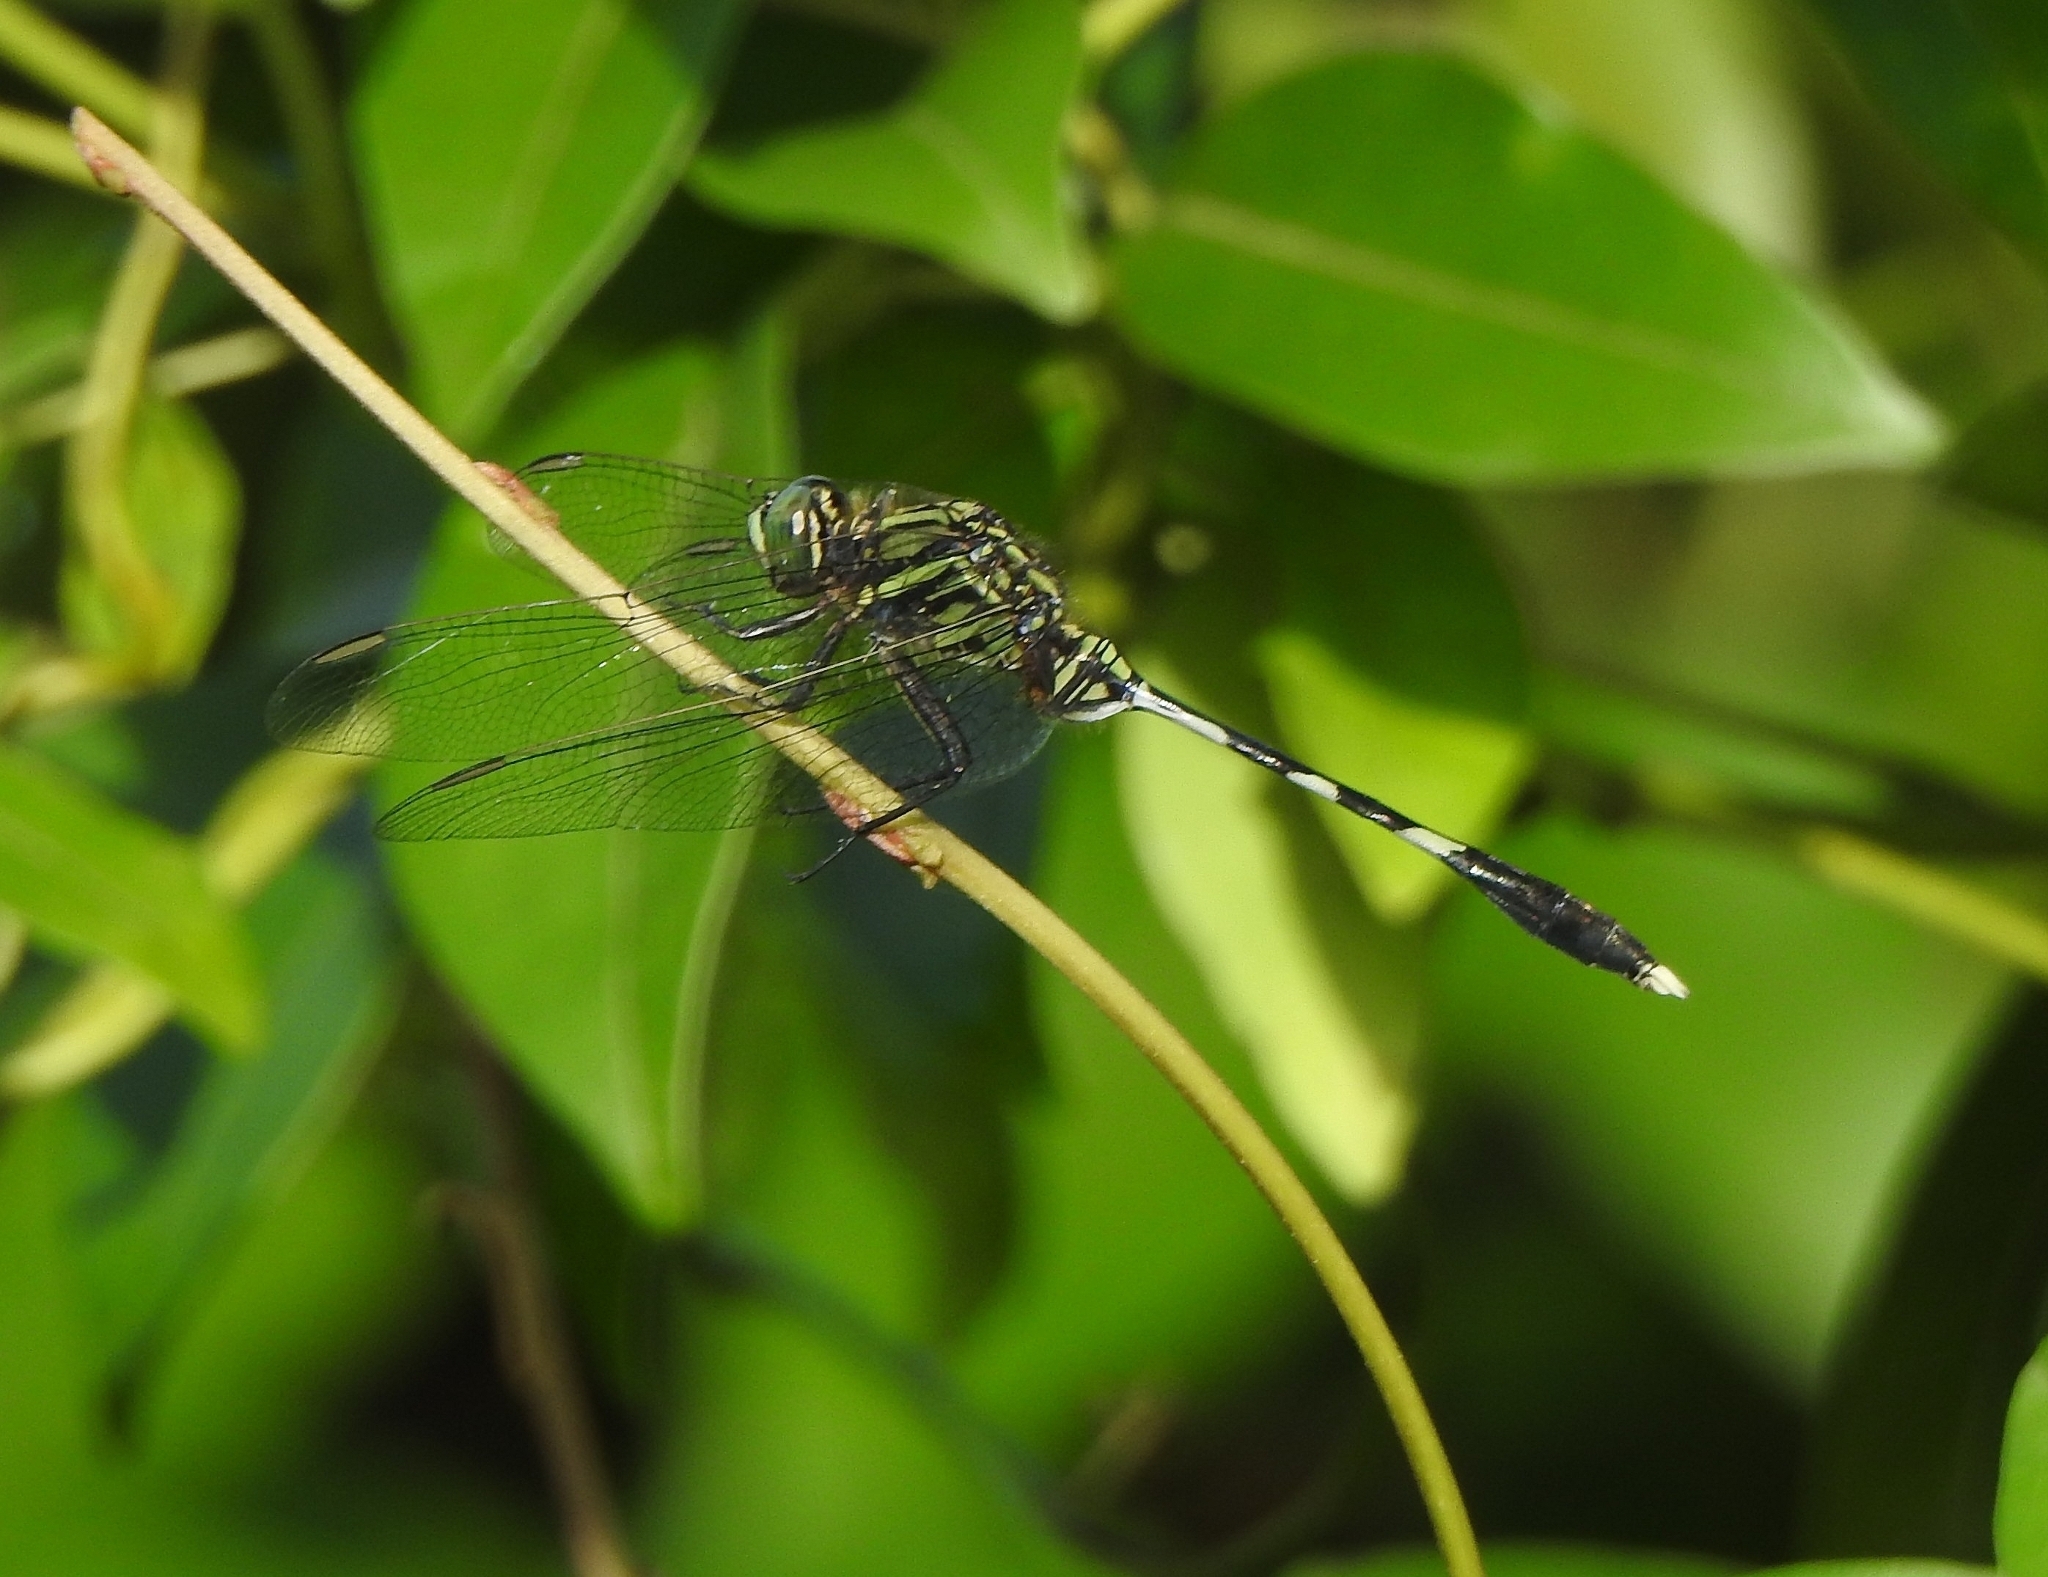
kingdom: Animalia
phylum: Arthropoda
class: Insecta
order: Odonata
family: Libellulidae
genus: Orthetrum
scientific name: Orthetrum sabina
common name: Slender skimmer
